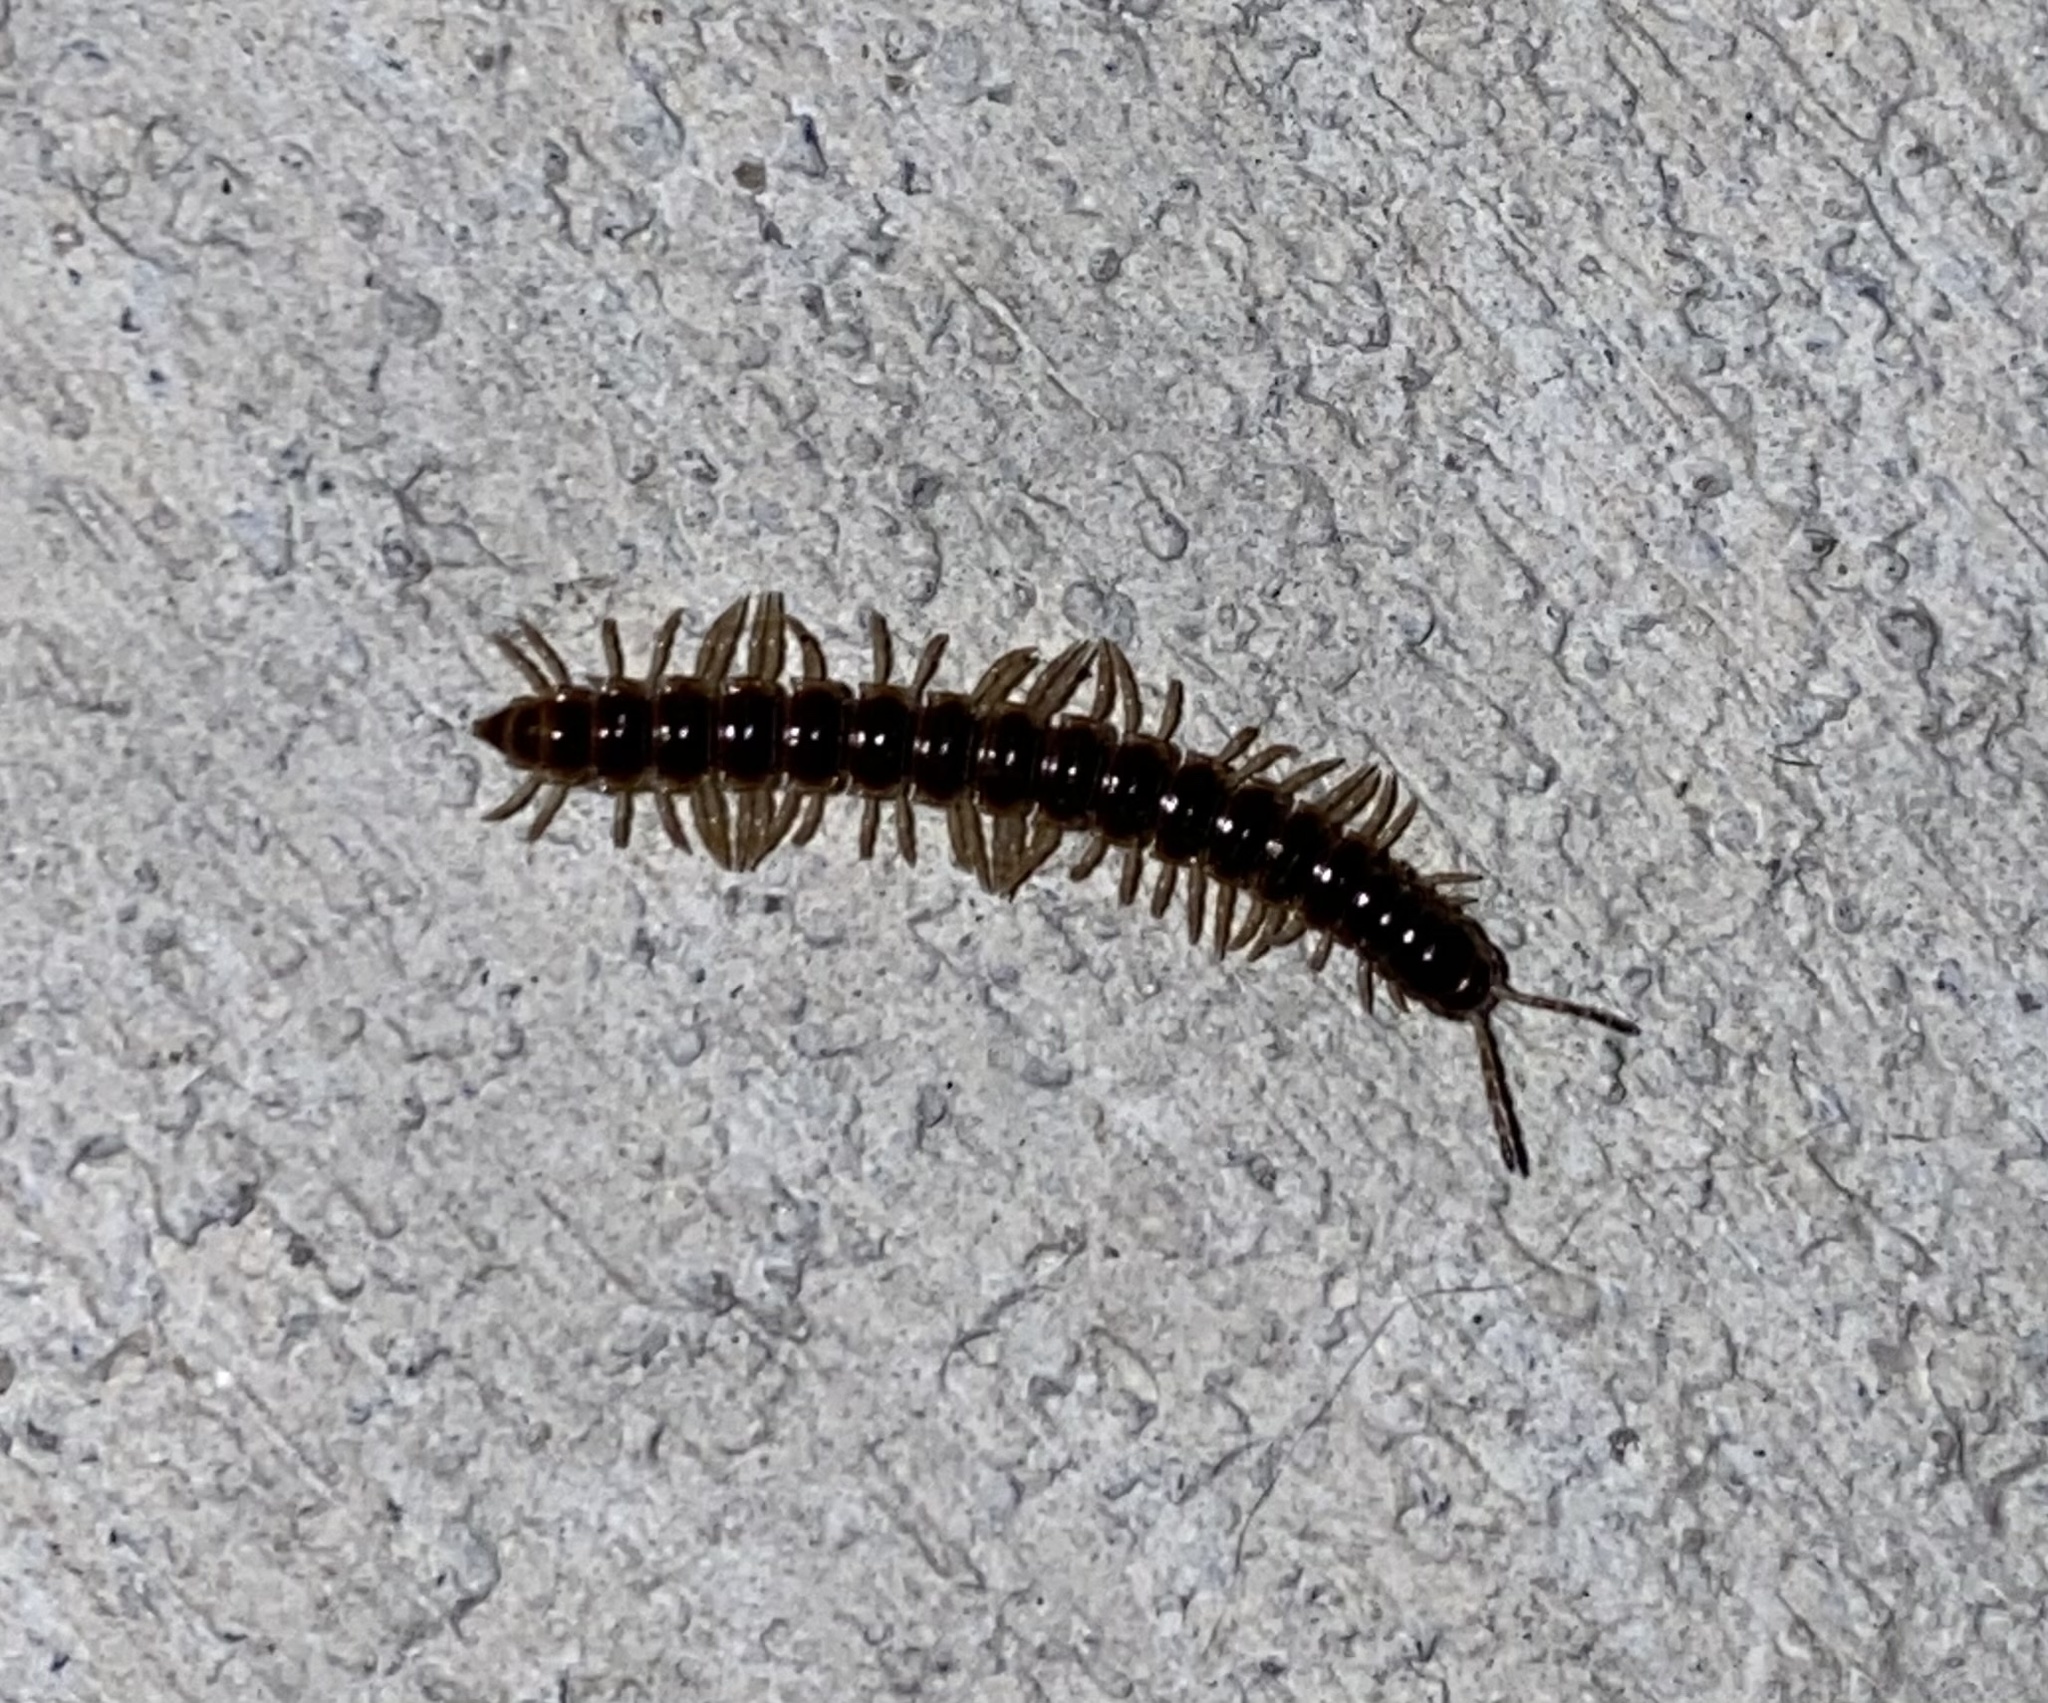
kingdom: Animalia
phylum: Arthropoda
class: Diplopoda
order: Polydesmida
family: Paradoxosomatidae
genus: Oxidus
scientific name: Oxidus gracilis
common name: Greenhouse millipede
